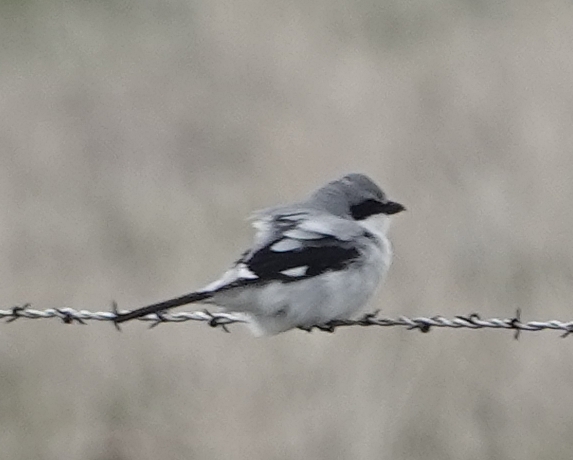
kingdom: Animalia
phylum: Chordata
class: Aves
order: Passeriformes
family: Laniidae
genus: Lanius
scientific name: Lanius ludovicianus
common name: Loggerhead shrike
